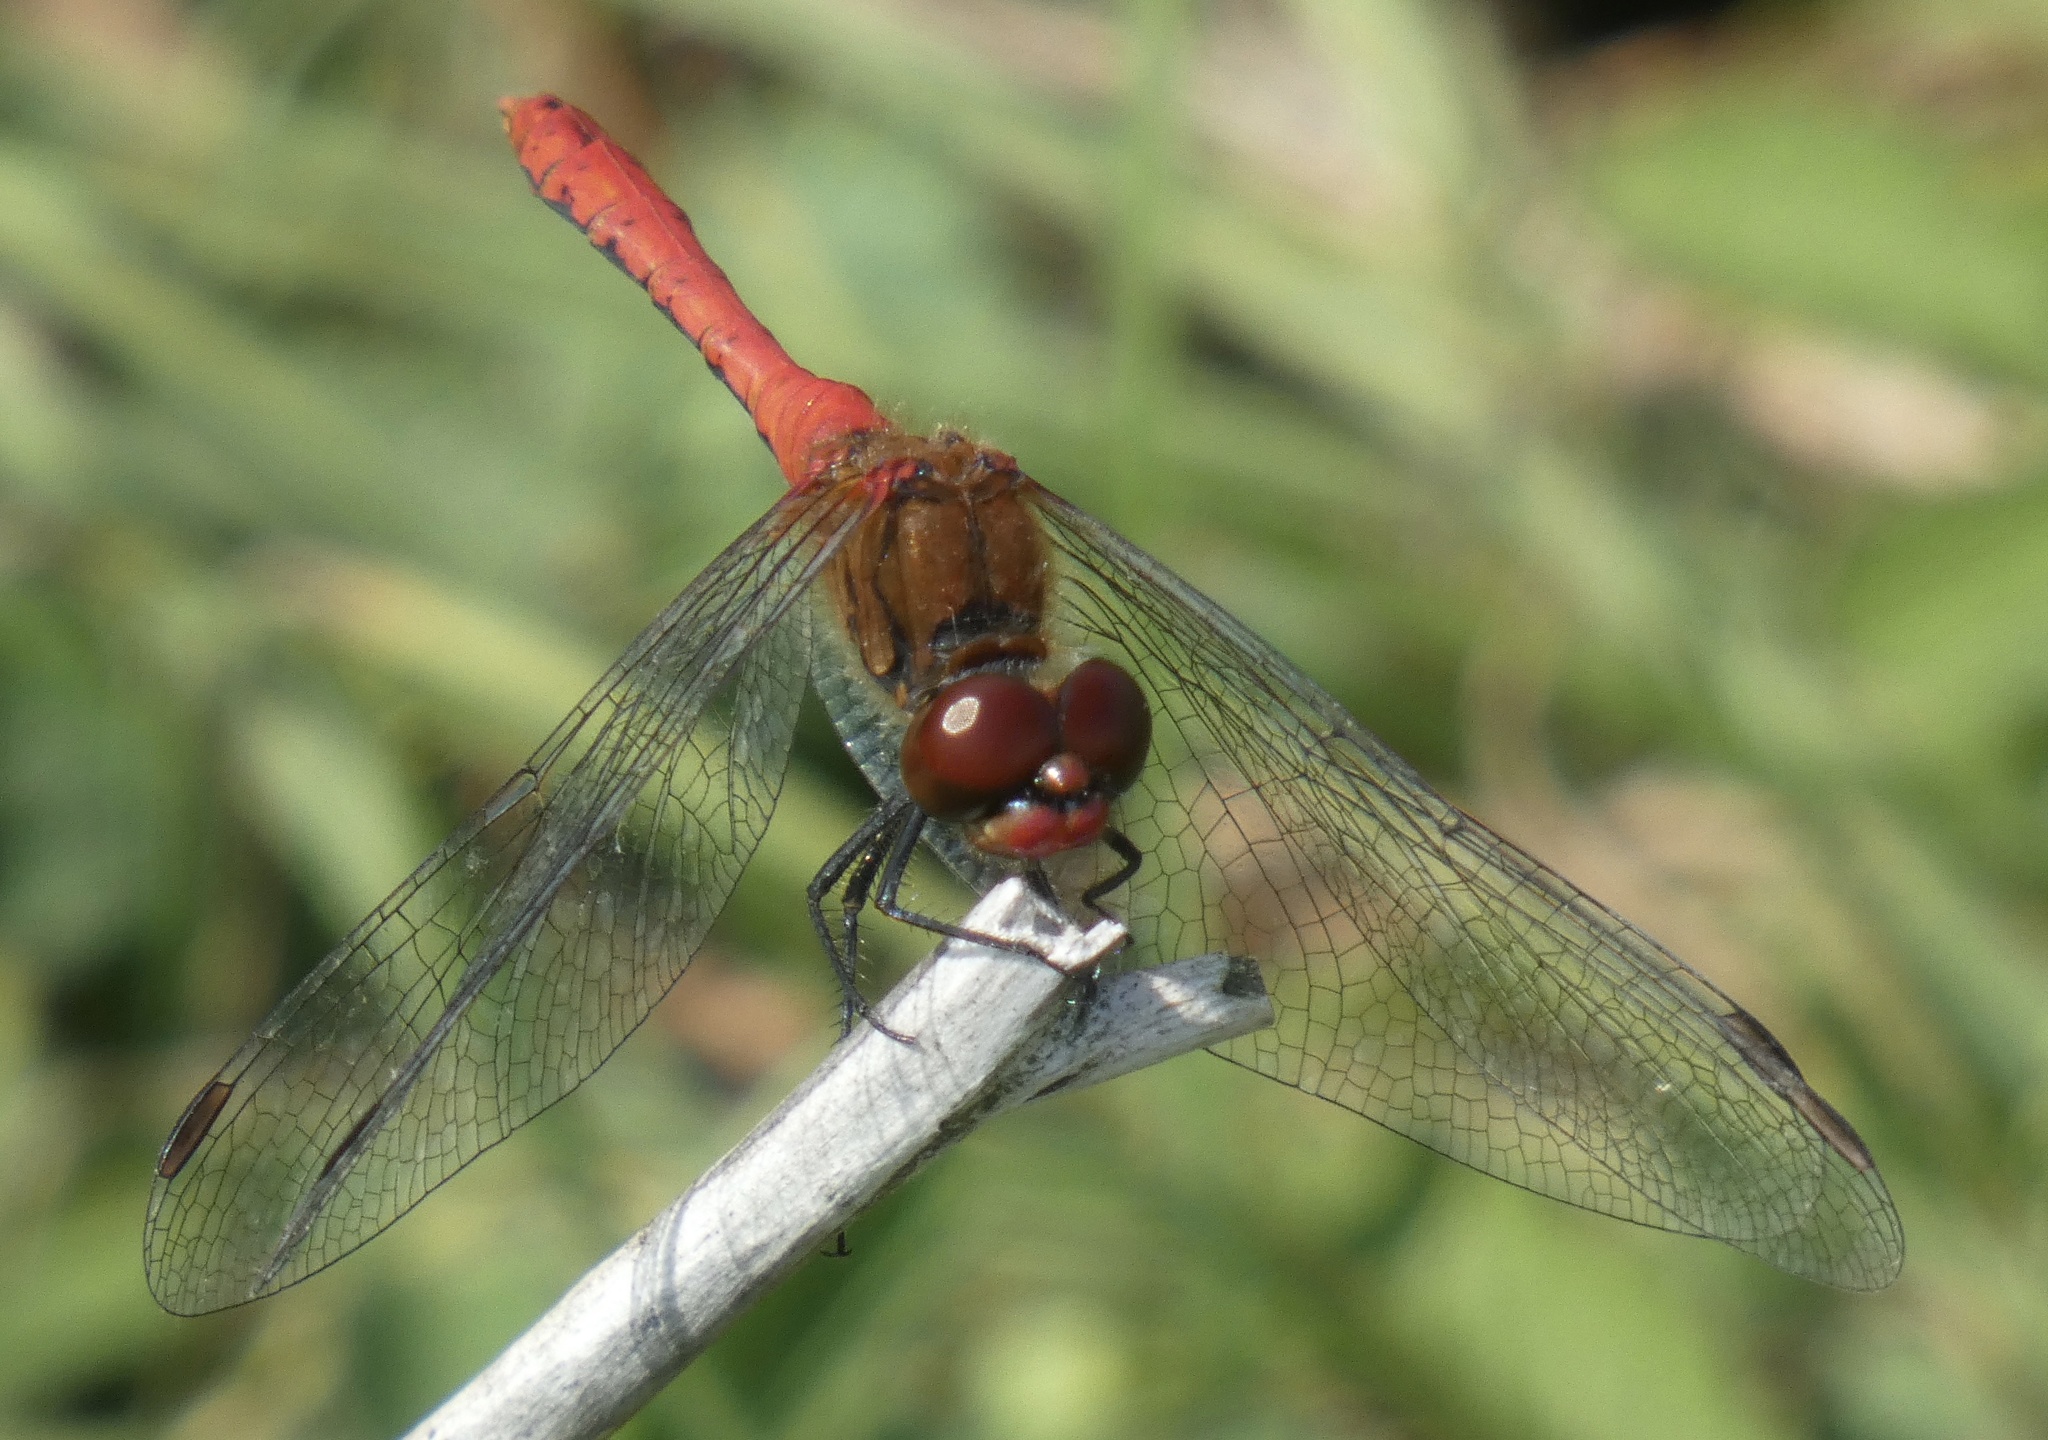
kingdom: Animalia
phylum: Arthropoda
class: Insecta
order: Odonata
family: Libellulidae
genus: Sympetrum
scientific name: Sympetrum sanguineum
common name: Ruddy darter
